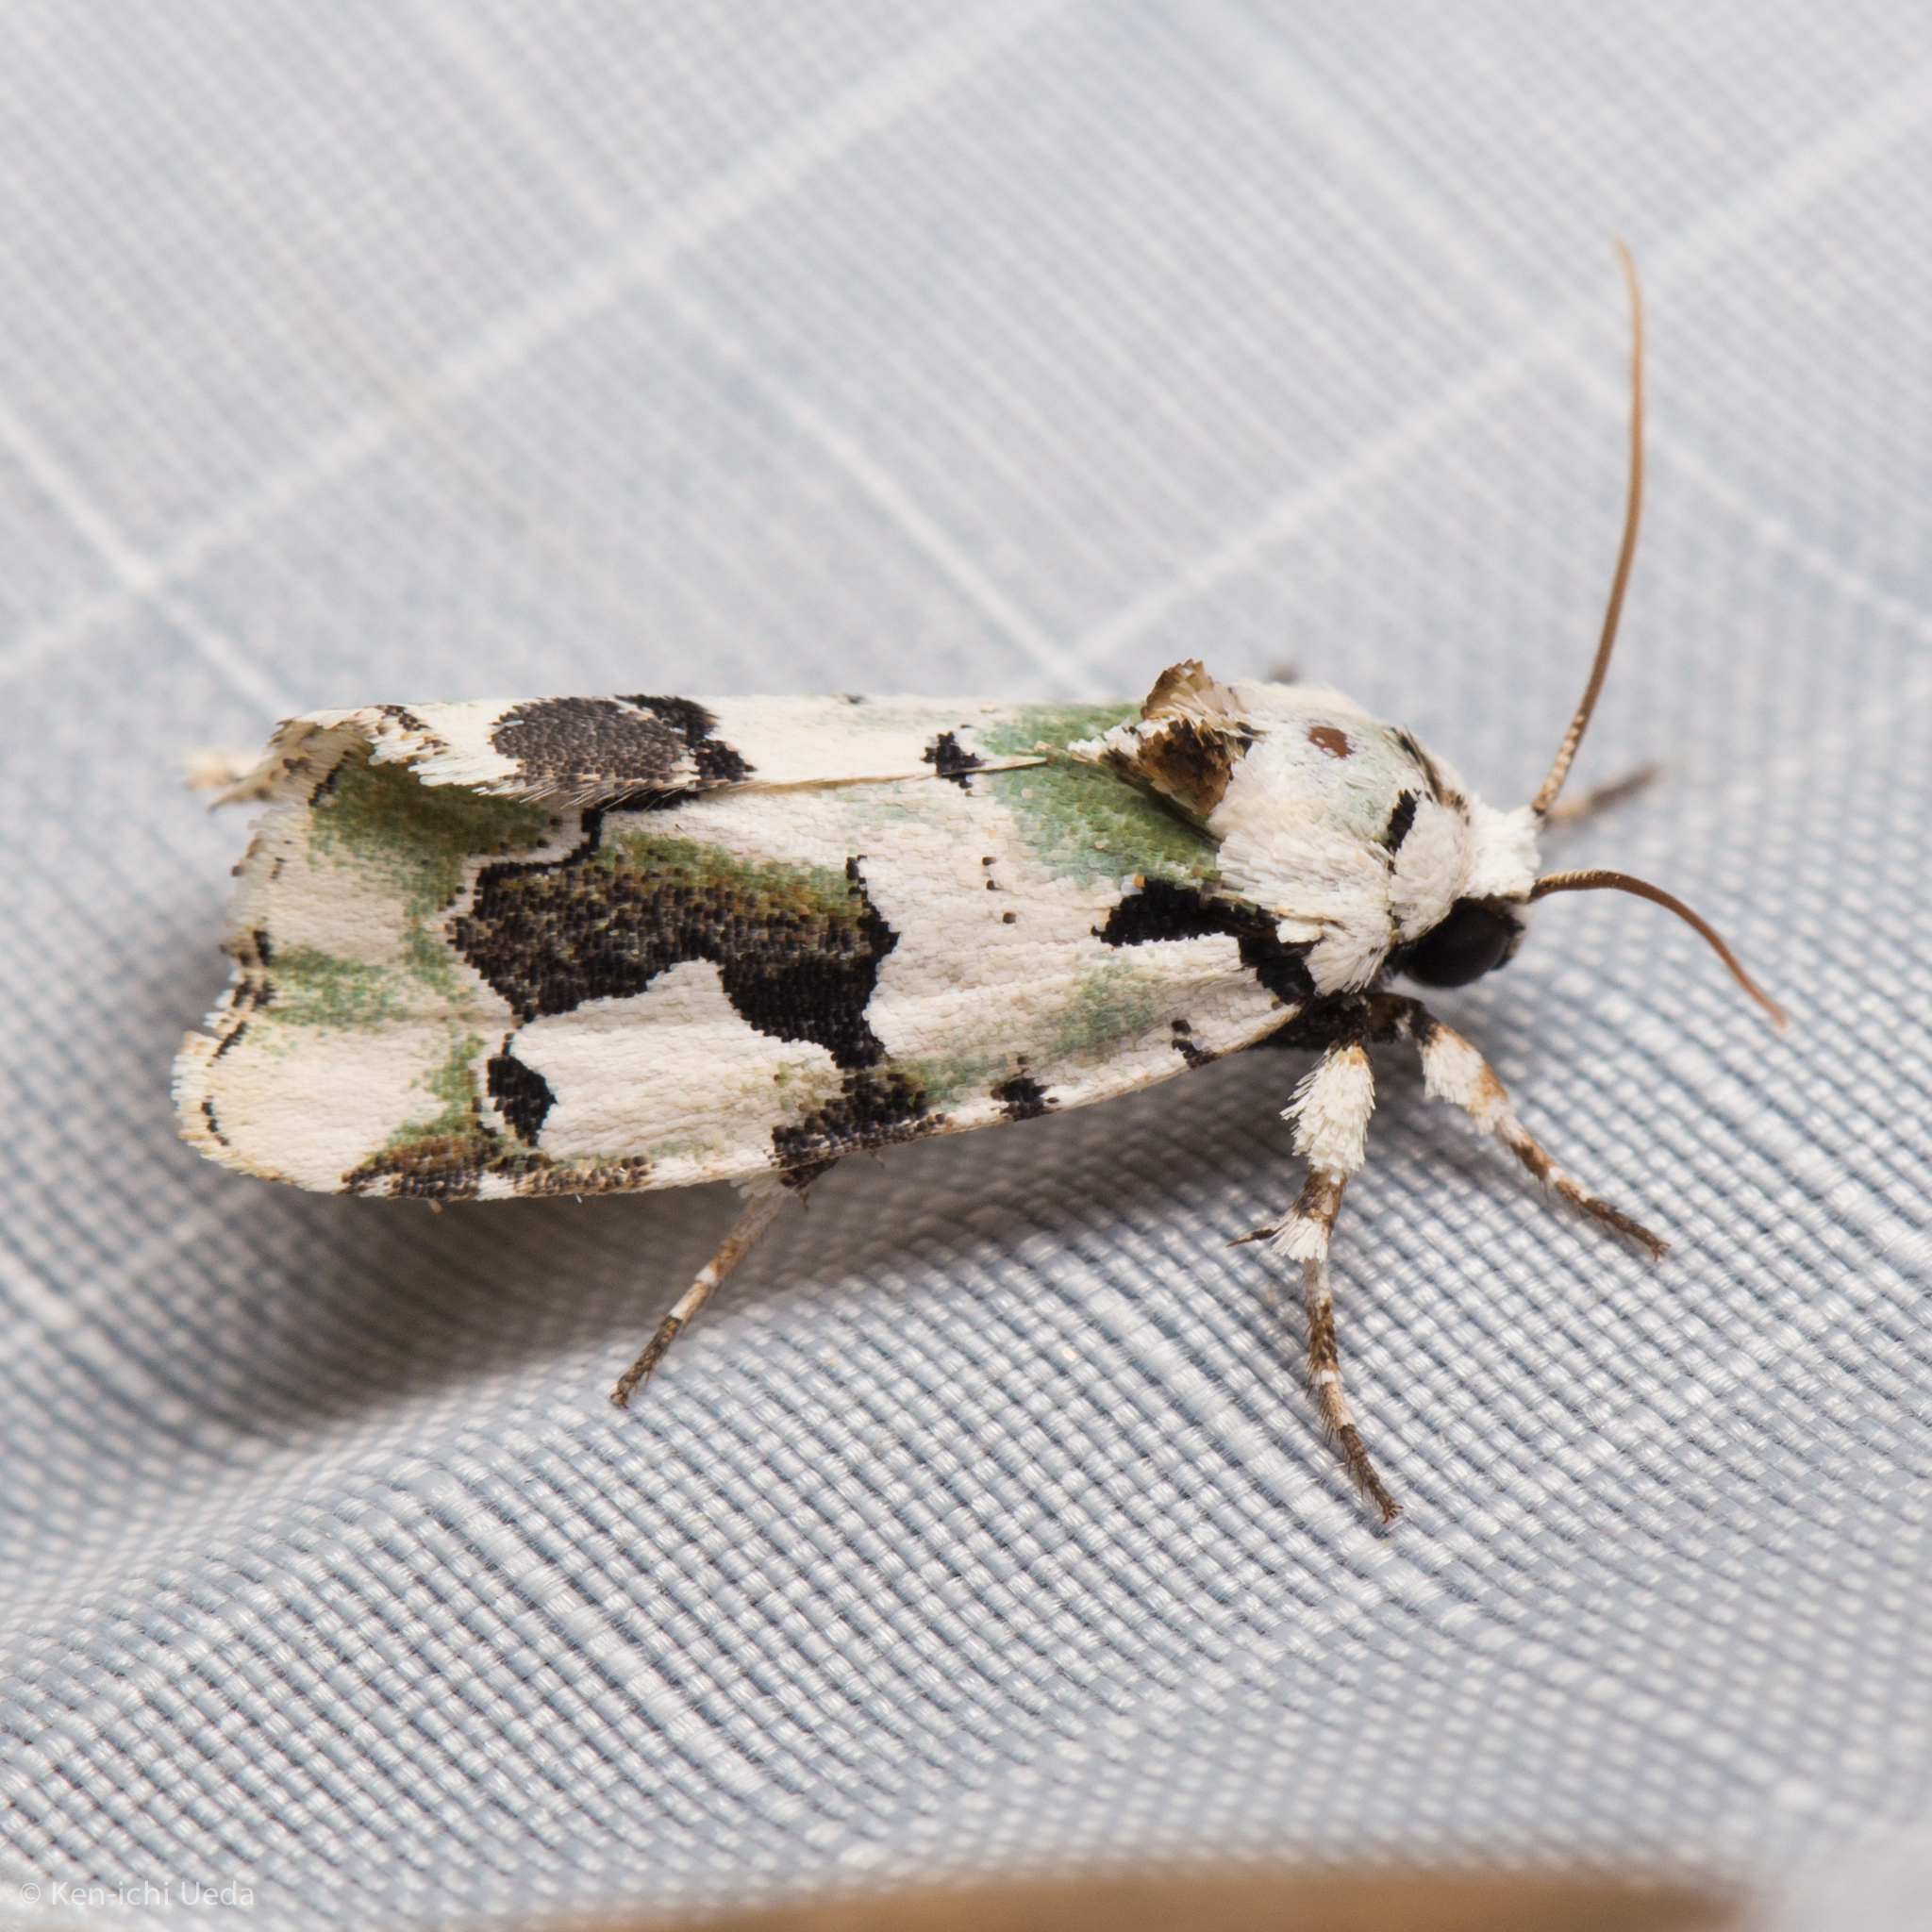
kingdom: Animalia
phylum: Arthropoda
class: Insecta
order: Lepidoptera
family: Noctuidae
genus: Emarginea
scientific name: Emarginea percara
